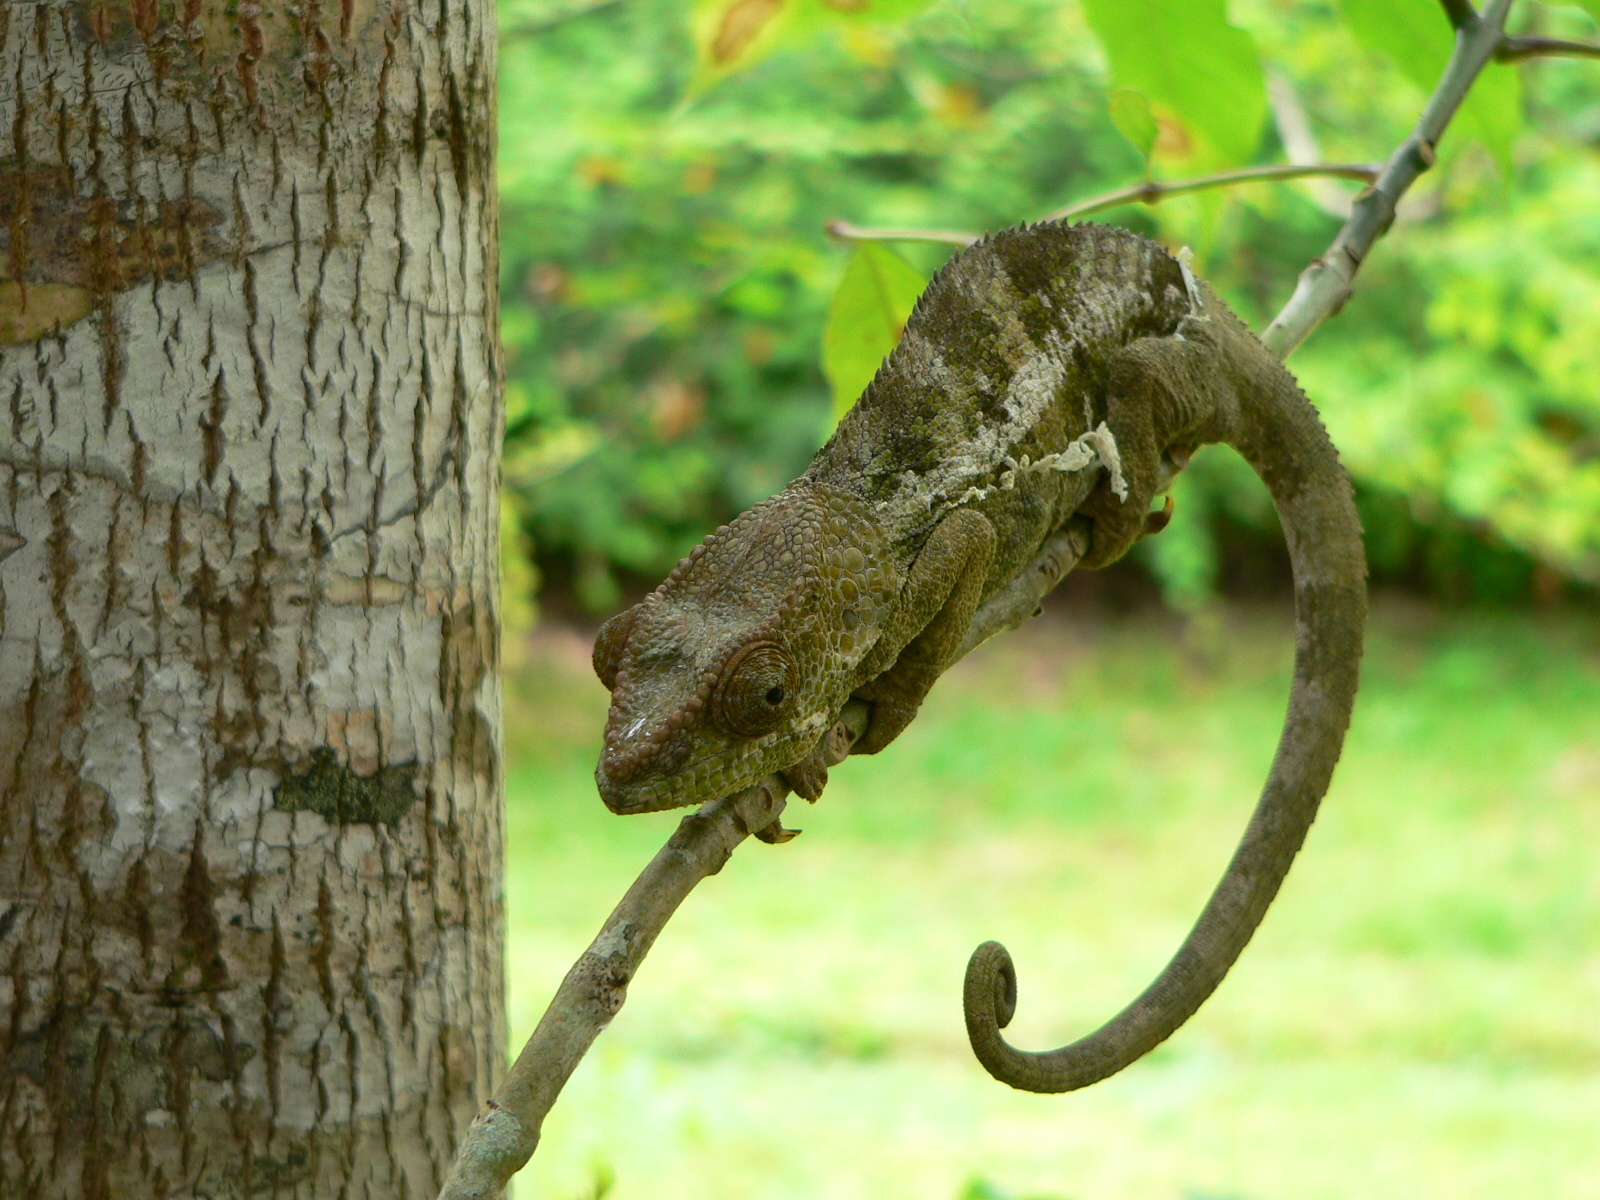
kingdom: Animalia
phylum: Chordata
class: Squamata
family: Chamaeleonidae
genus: Calumma
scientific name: Calumma brevicorne
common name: Short-horned chameleon
